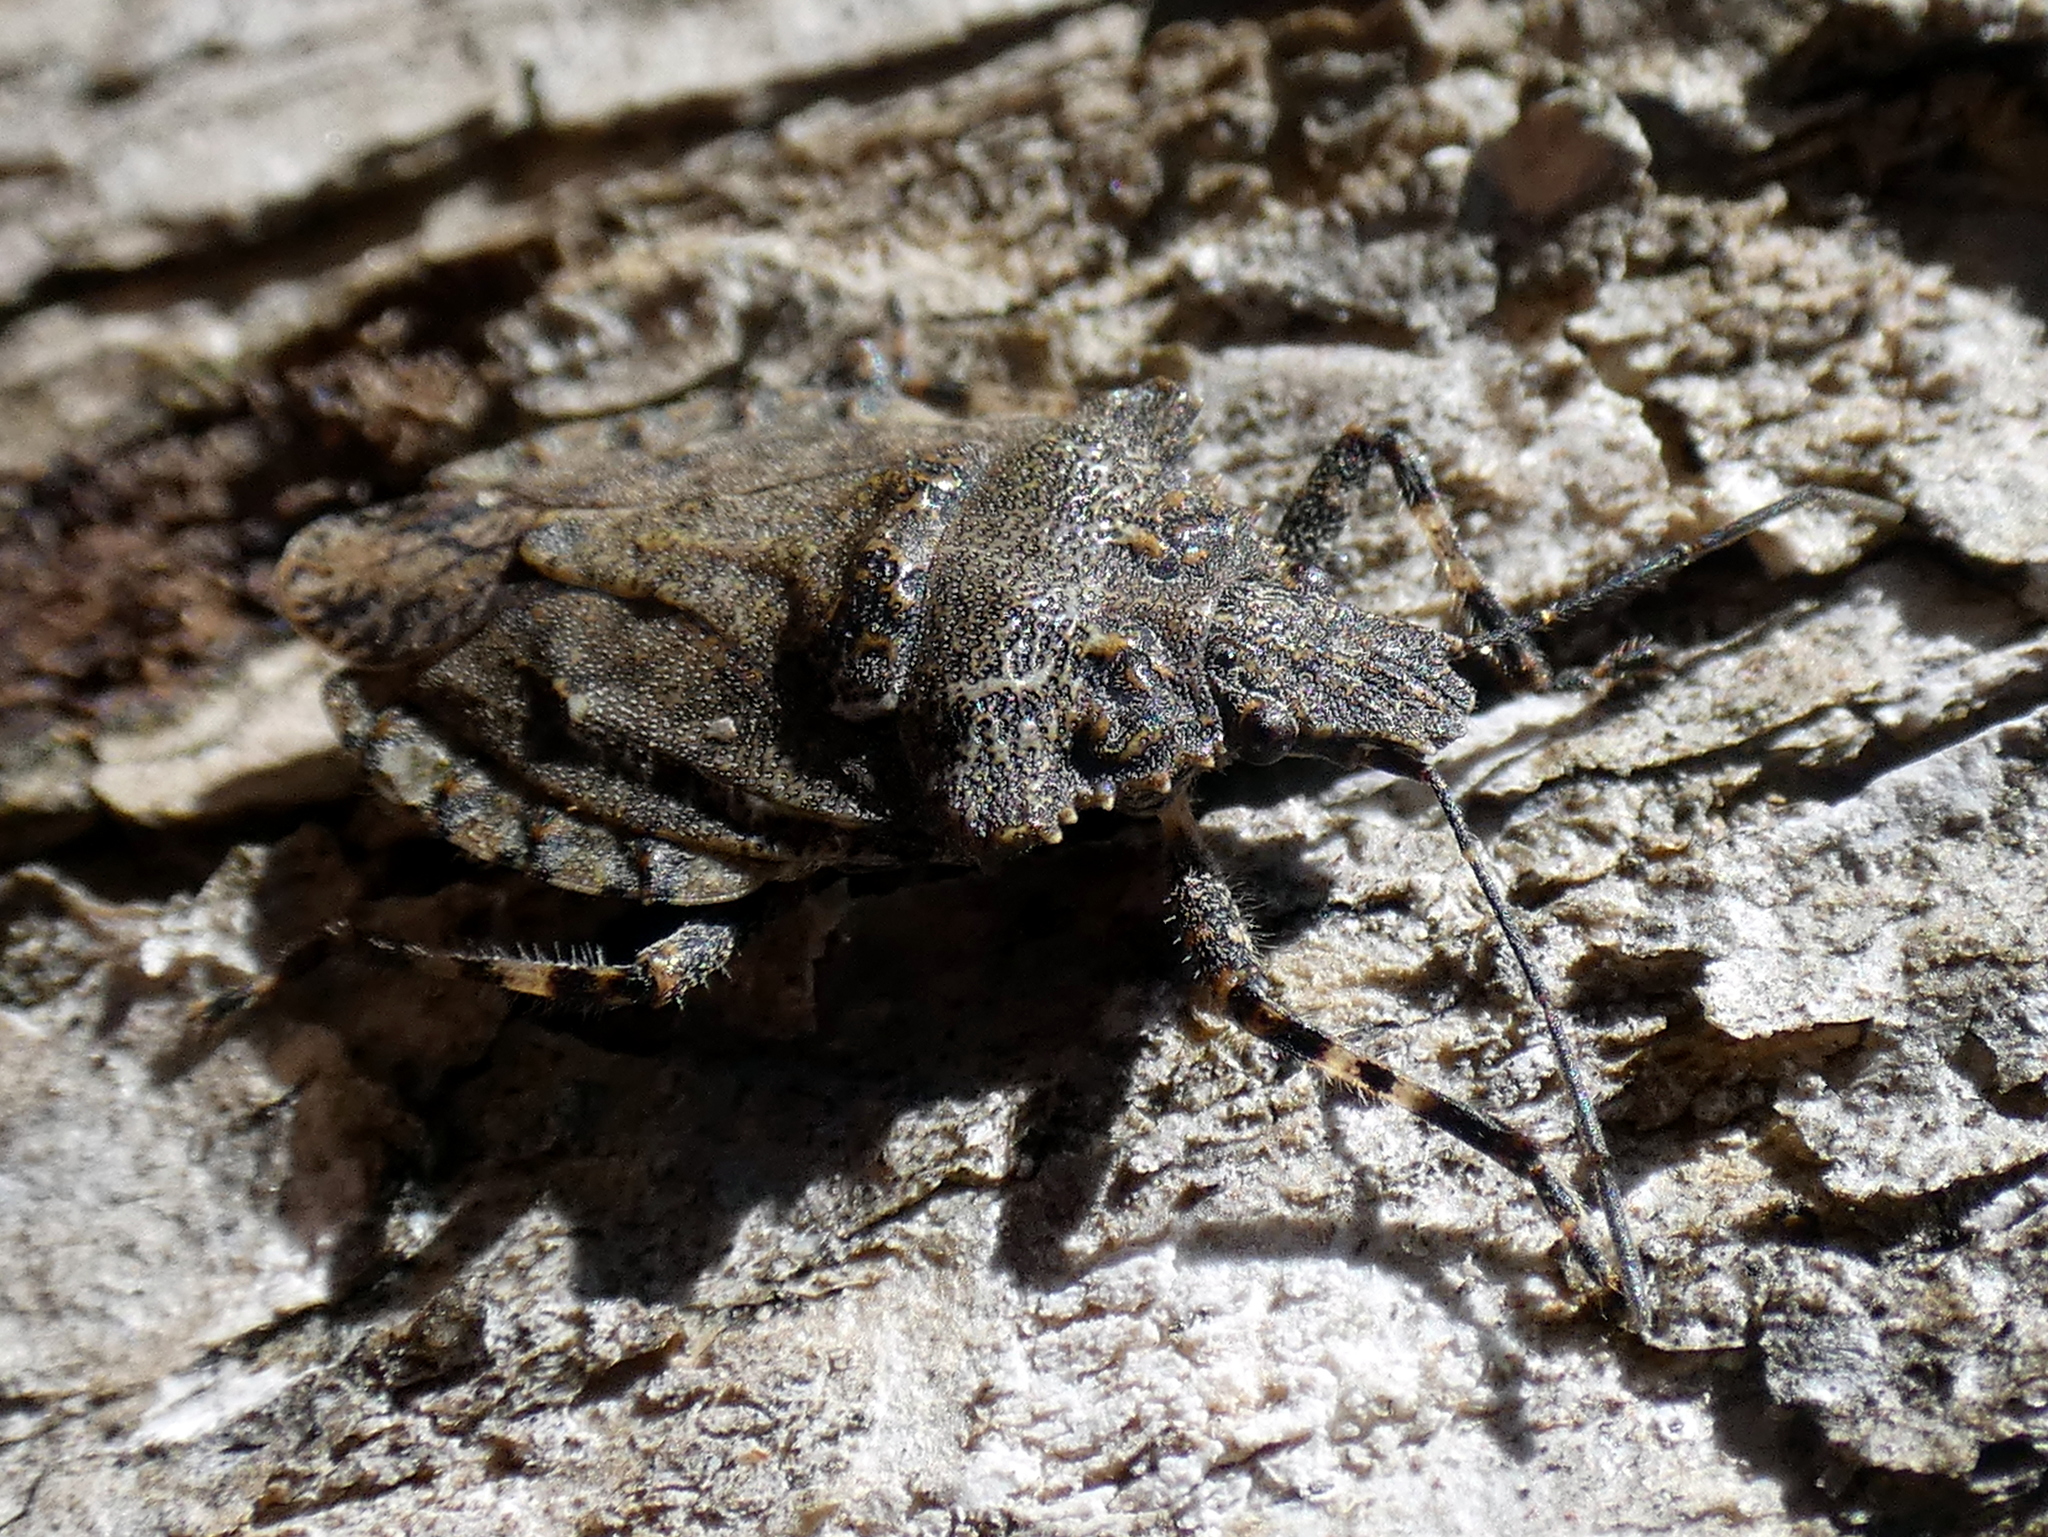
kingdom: Animalia
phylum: Arthropoda
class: Insecta
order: Hemiptera
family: Pentatomidae
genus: Brochymena
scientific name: Brochymena arborea
